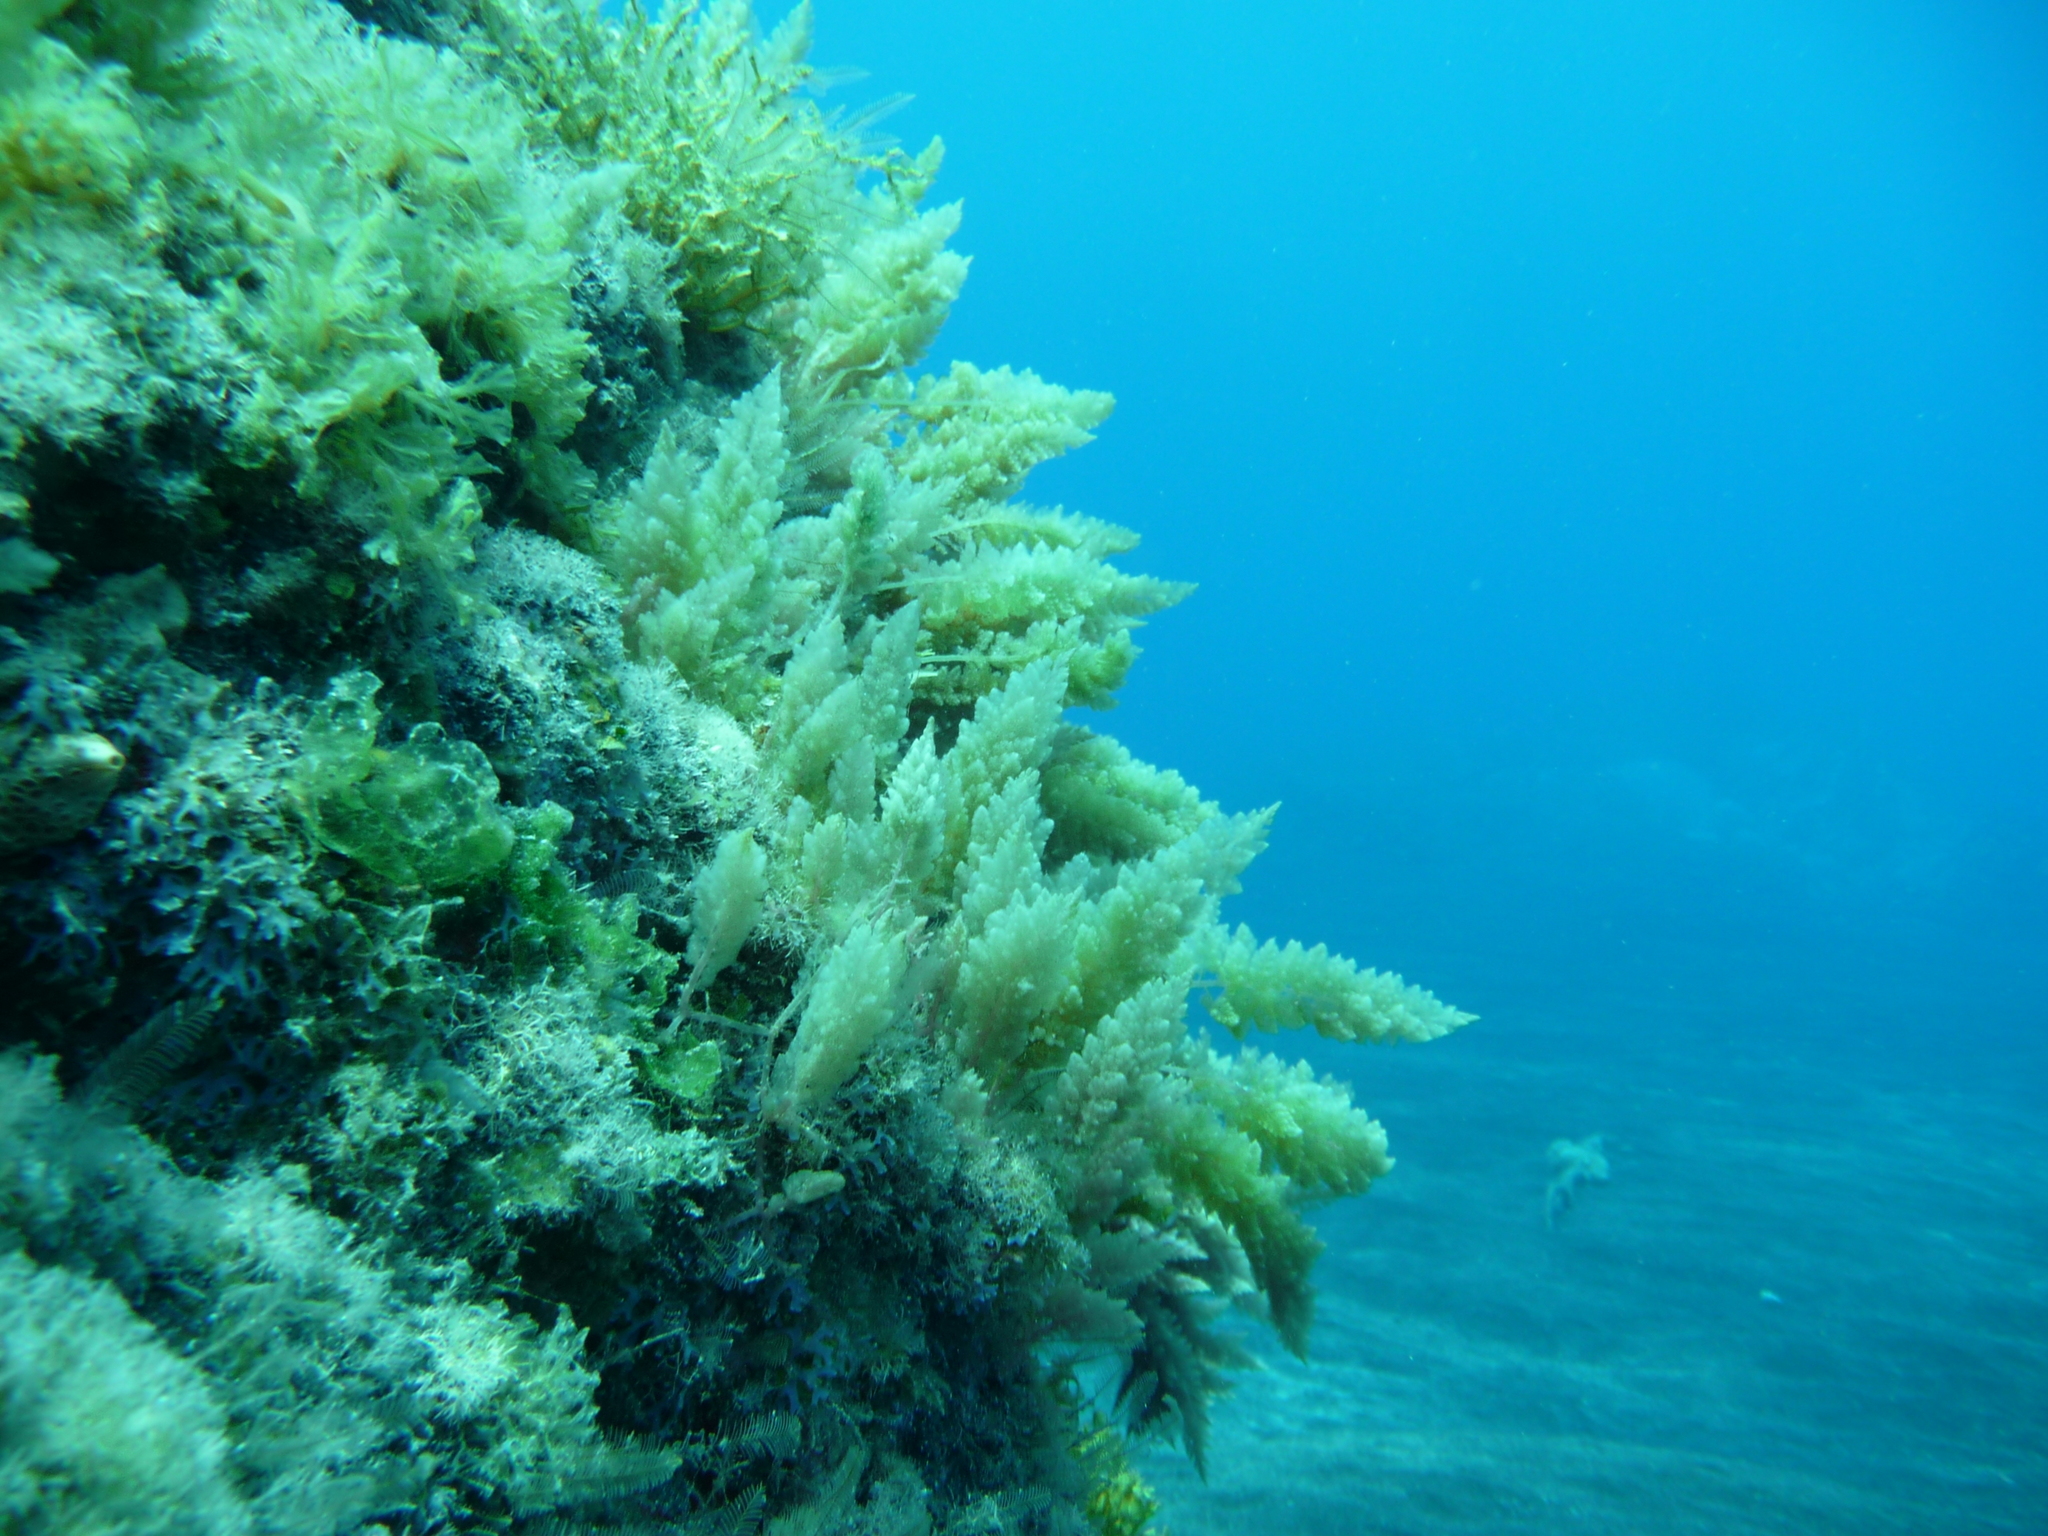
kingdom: Plantae
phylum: Rhodophyta
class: Florideophyceae
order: Bonnemaisoniales
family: Bonnemaisoniaceae
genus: Asparagopsis
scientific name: Asparagopsis taxiformis
